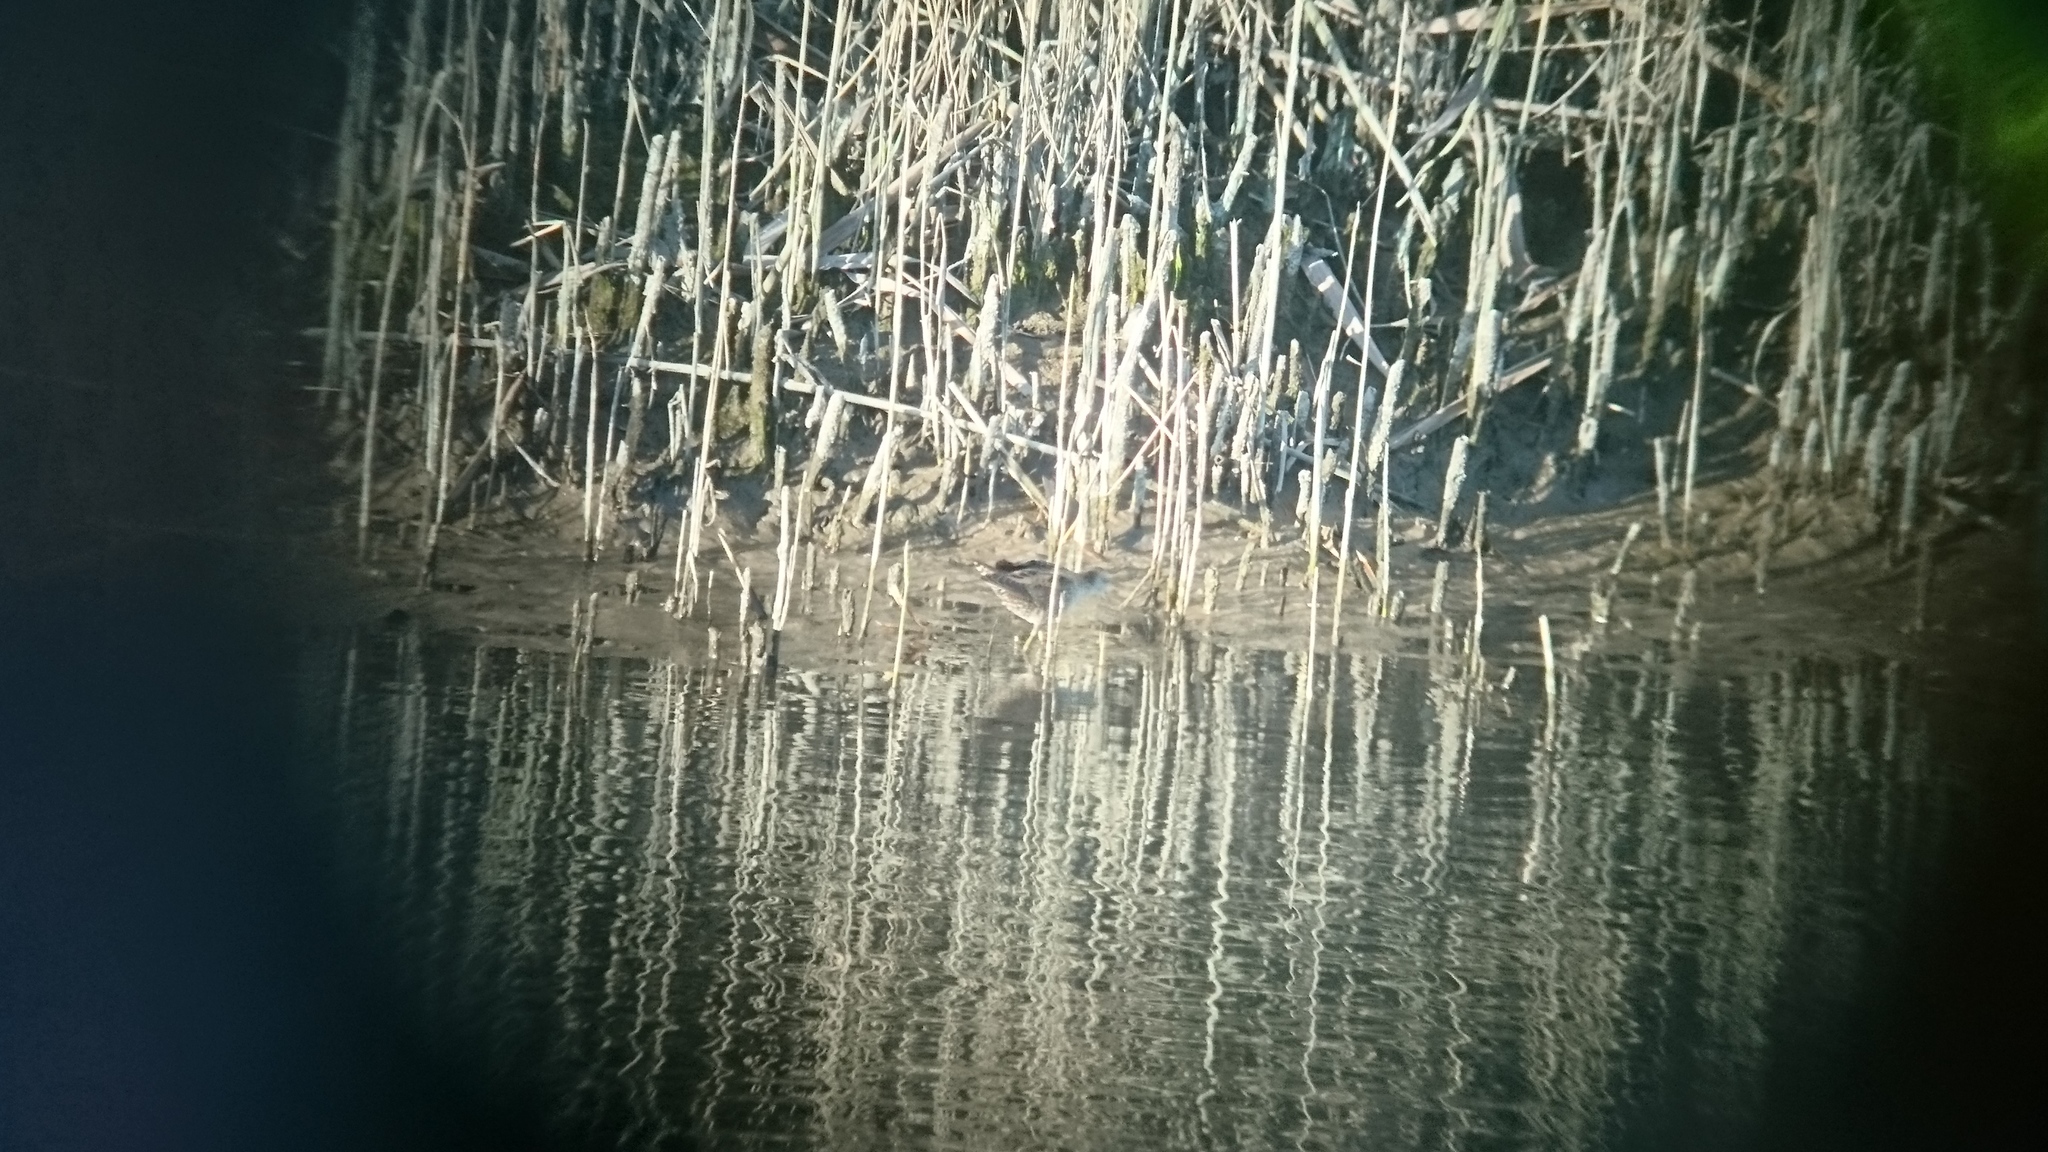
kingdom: Animalia
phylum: Chordata
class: Aves
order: Gruiformes
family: Rallidae
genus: Porzana
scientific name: Porzana parva
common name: Little crake
